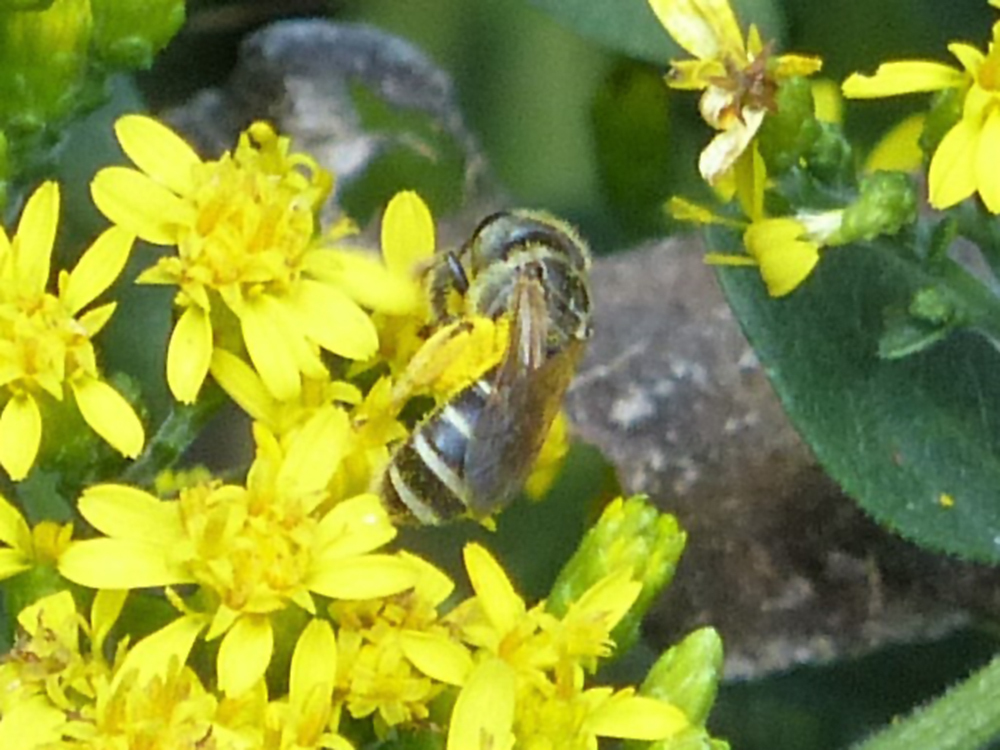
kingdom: Animalia
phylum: Arthropoda
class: Insecta
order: Hymenoptera
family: Halictidae
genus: Halictus
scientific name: Halictus ligatus
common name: Ligated furrow bee
